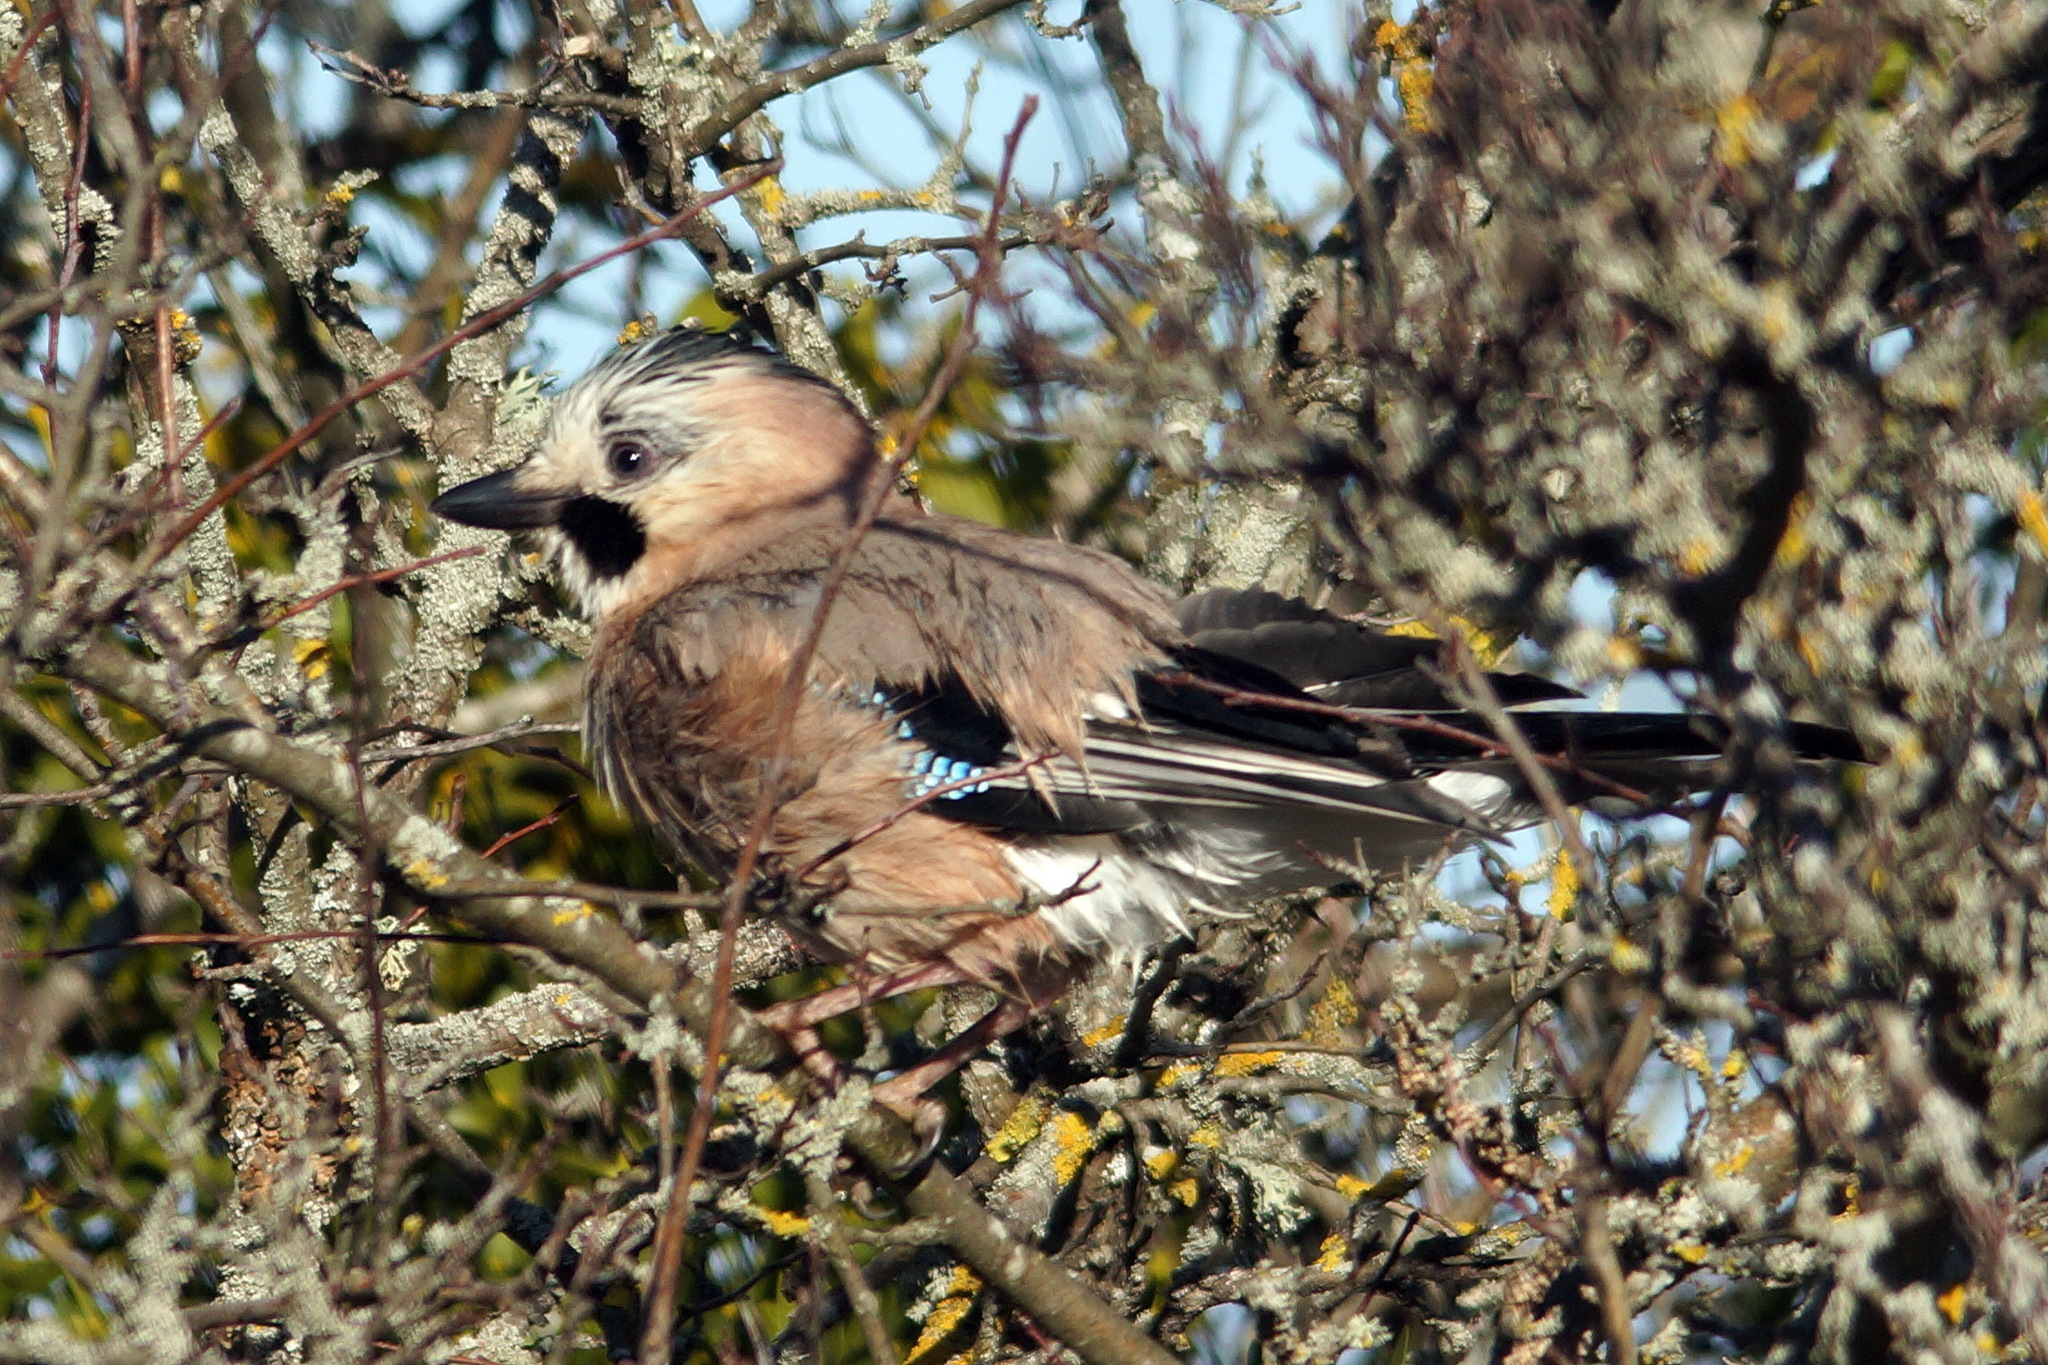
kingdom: Animalia
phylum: Chordata
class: Aves
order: Passeriformes
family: Corvidae
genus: Garrulus
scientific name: Garrulus glandarius
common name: Eurasian jay
